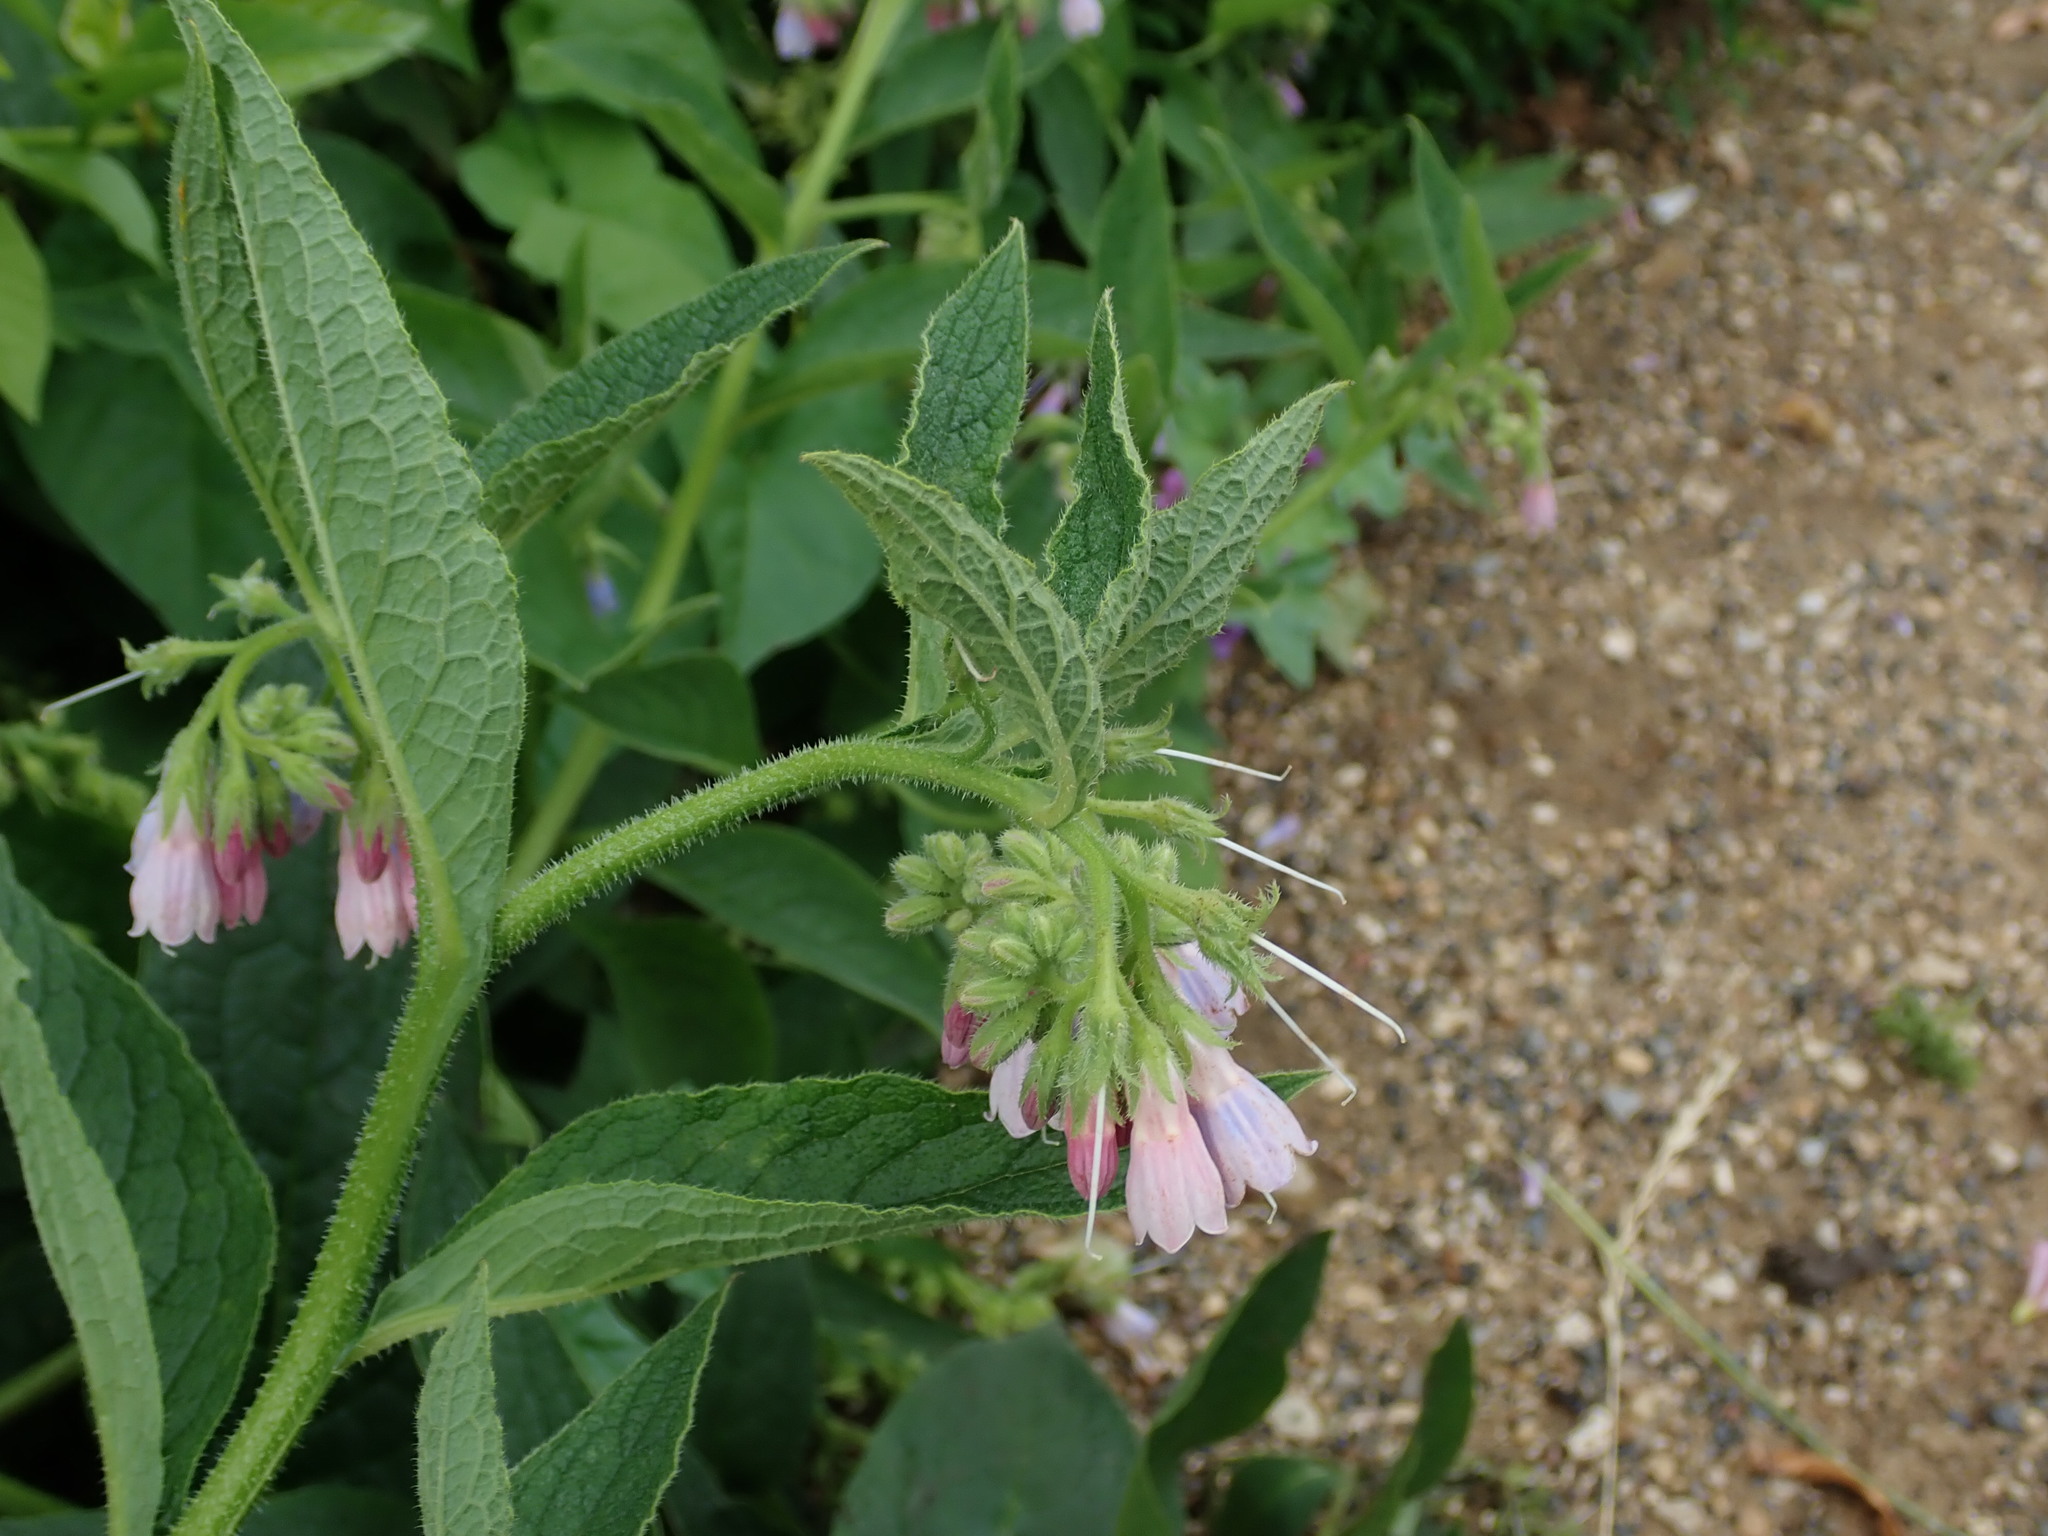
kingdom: Plantae
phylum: Tracheophyta
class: Magnoliopsida
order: Boraginales
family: Boraginaceae
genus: Symphytum
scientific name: Symphytum uplandicum
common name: Russian comfrey
